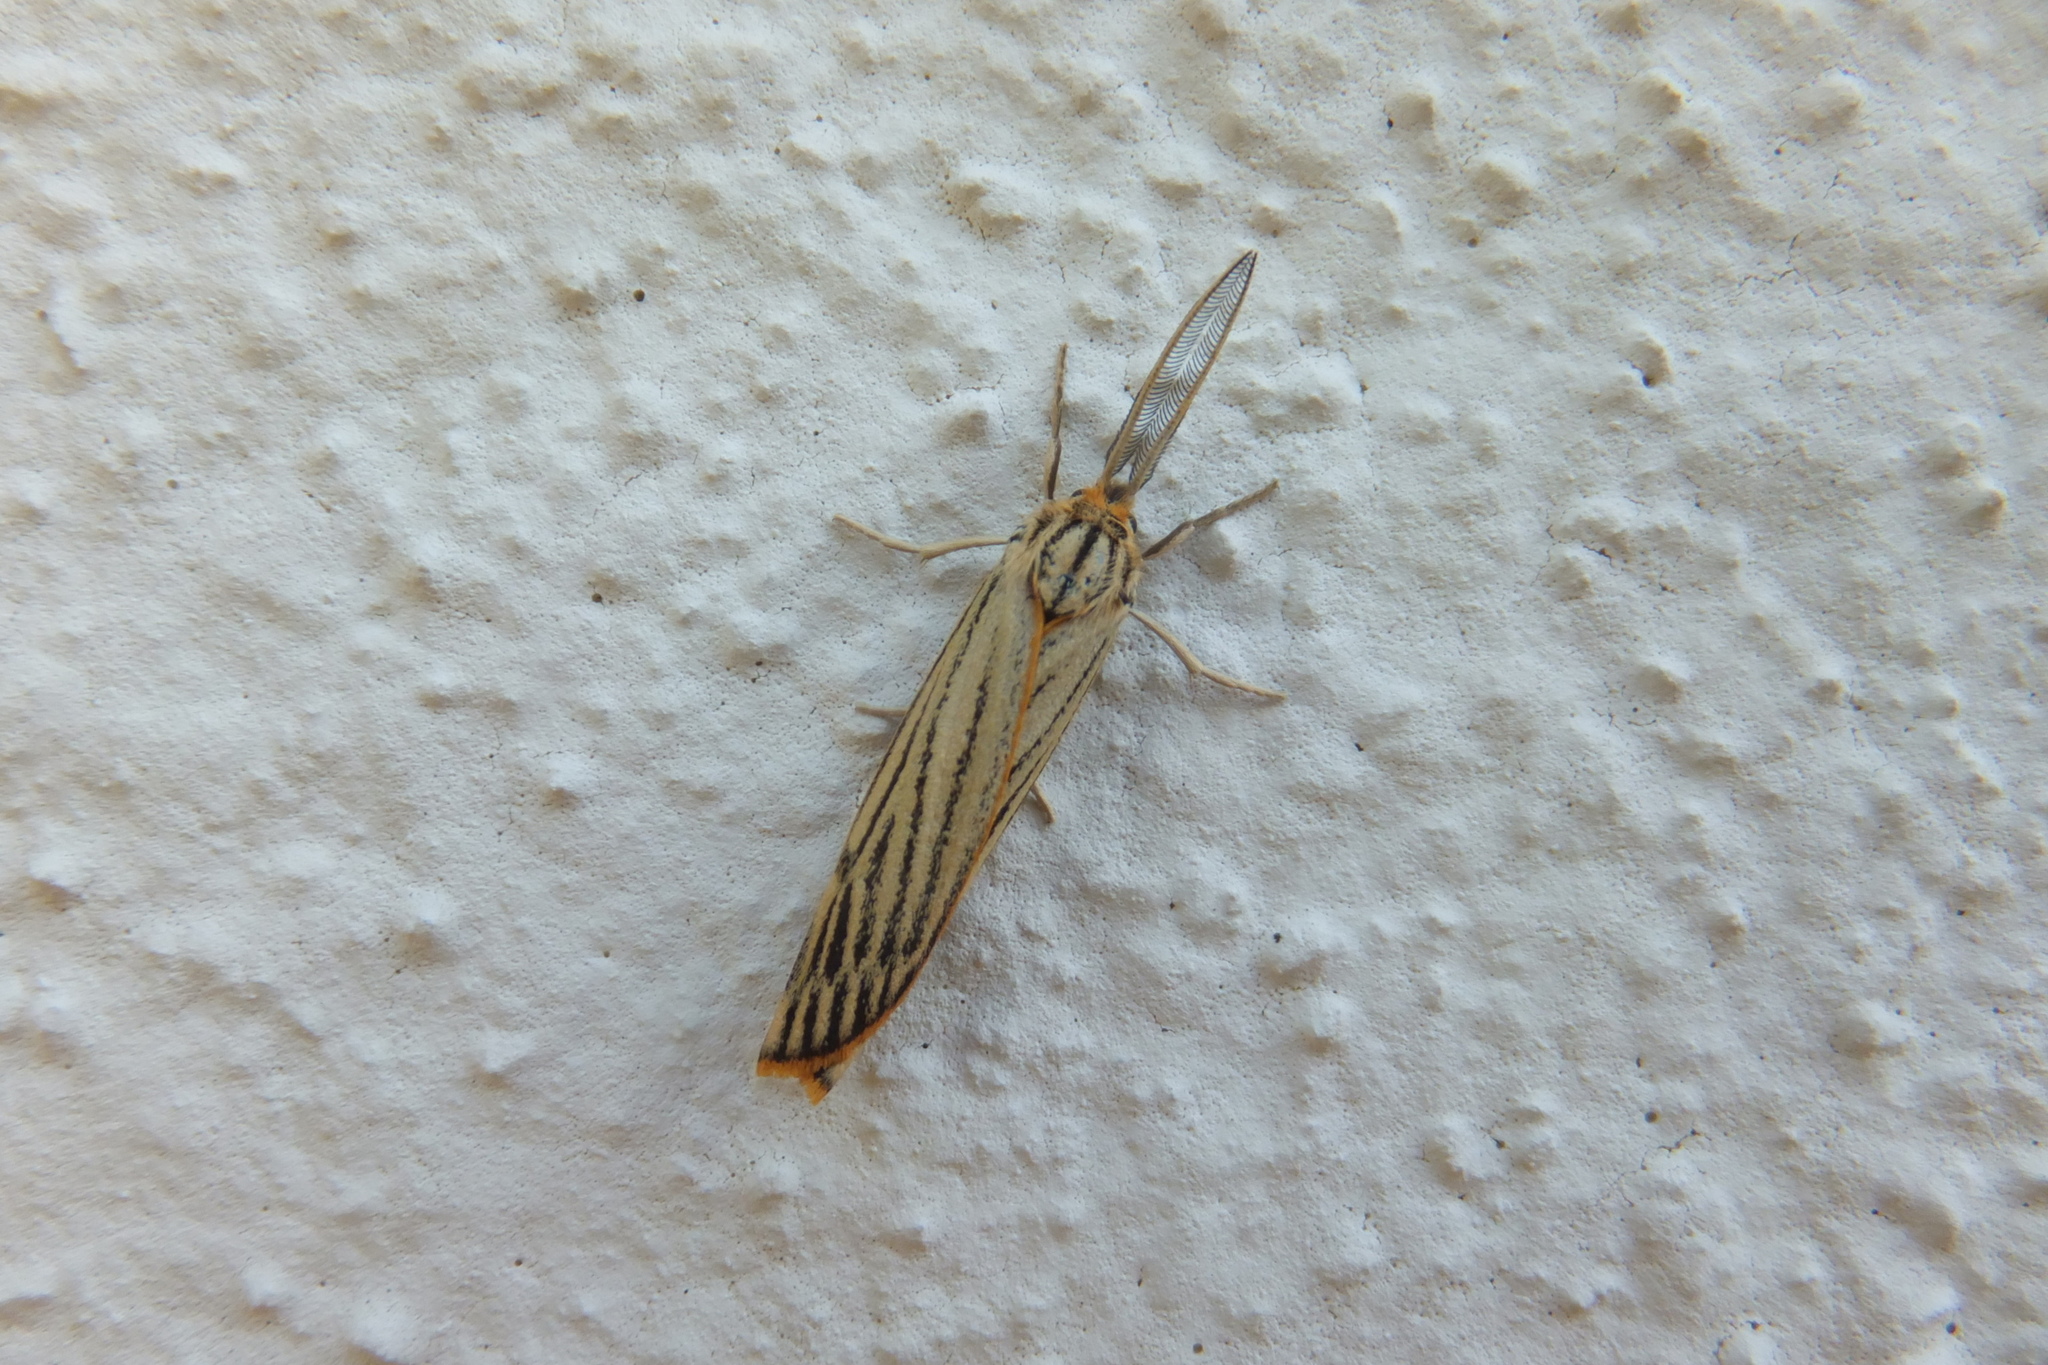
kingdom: Animalia
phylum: Arthropoda
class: Insecta
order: Lepidoptera
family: Erebidae
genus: Coscinia
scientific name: Coscinia Spiris striata
